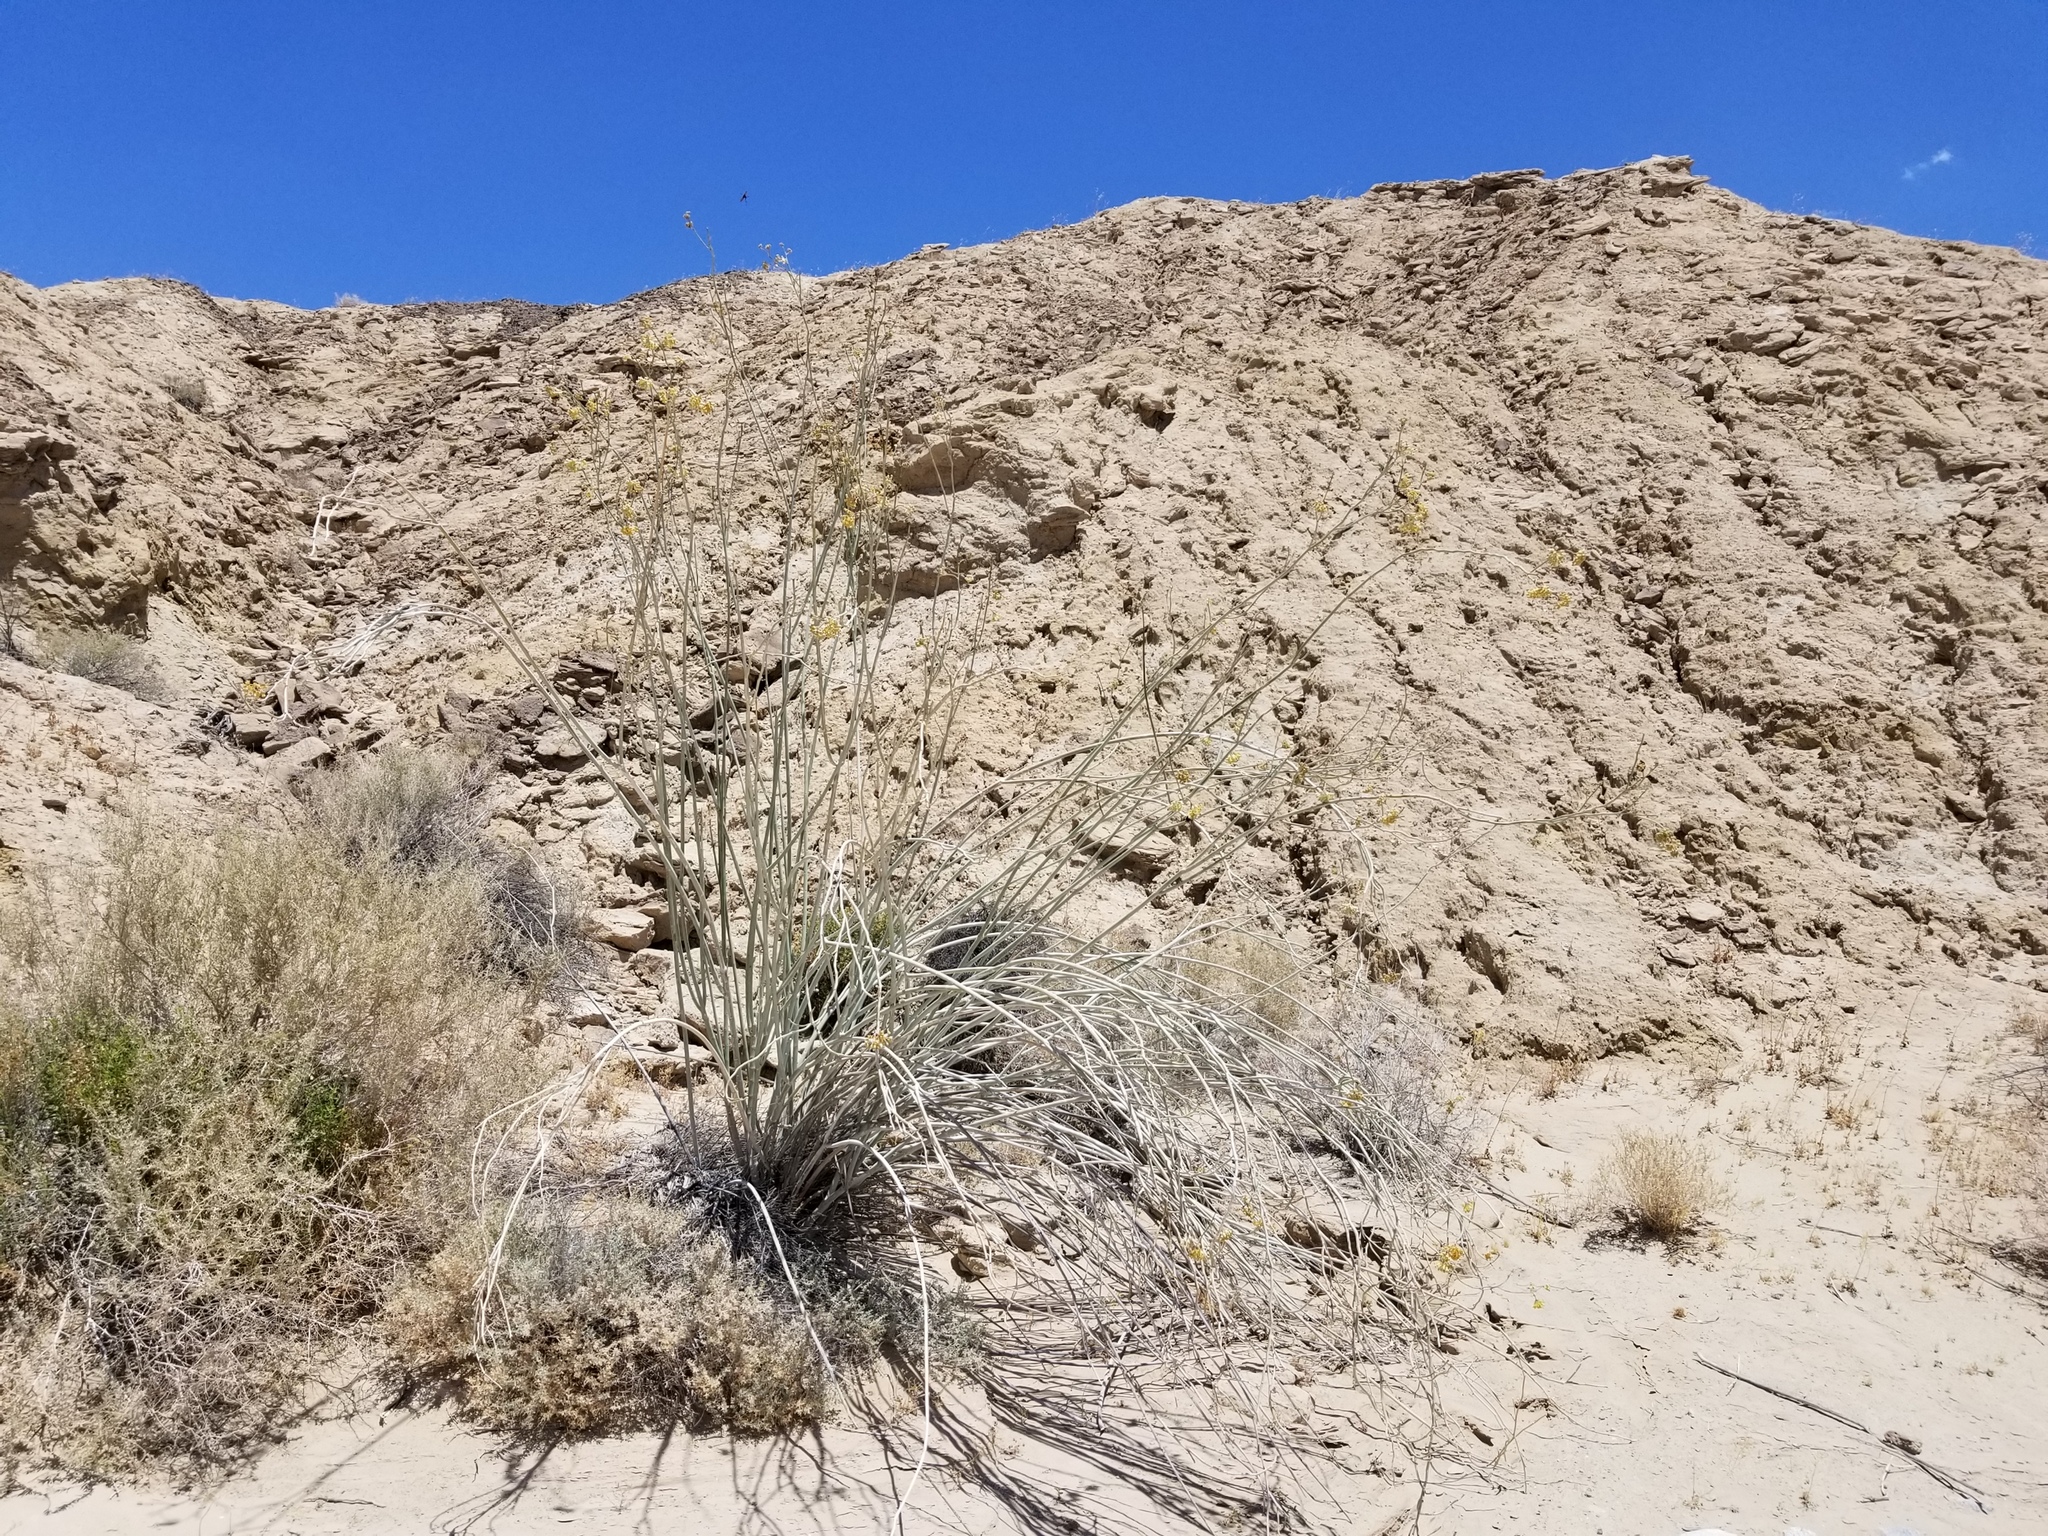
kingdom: Plantae
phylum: Tracheophyta
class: Magnoliopsida
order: Gentianales
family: Apocynaceae
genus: Asclepias
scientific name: Asclepias albicans
